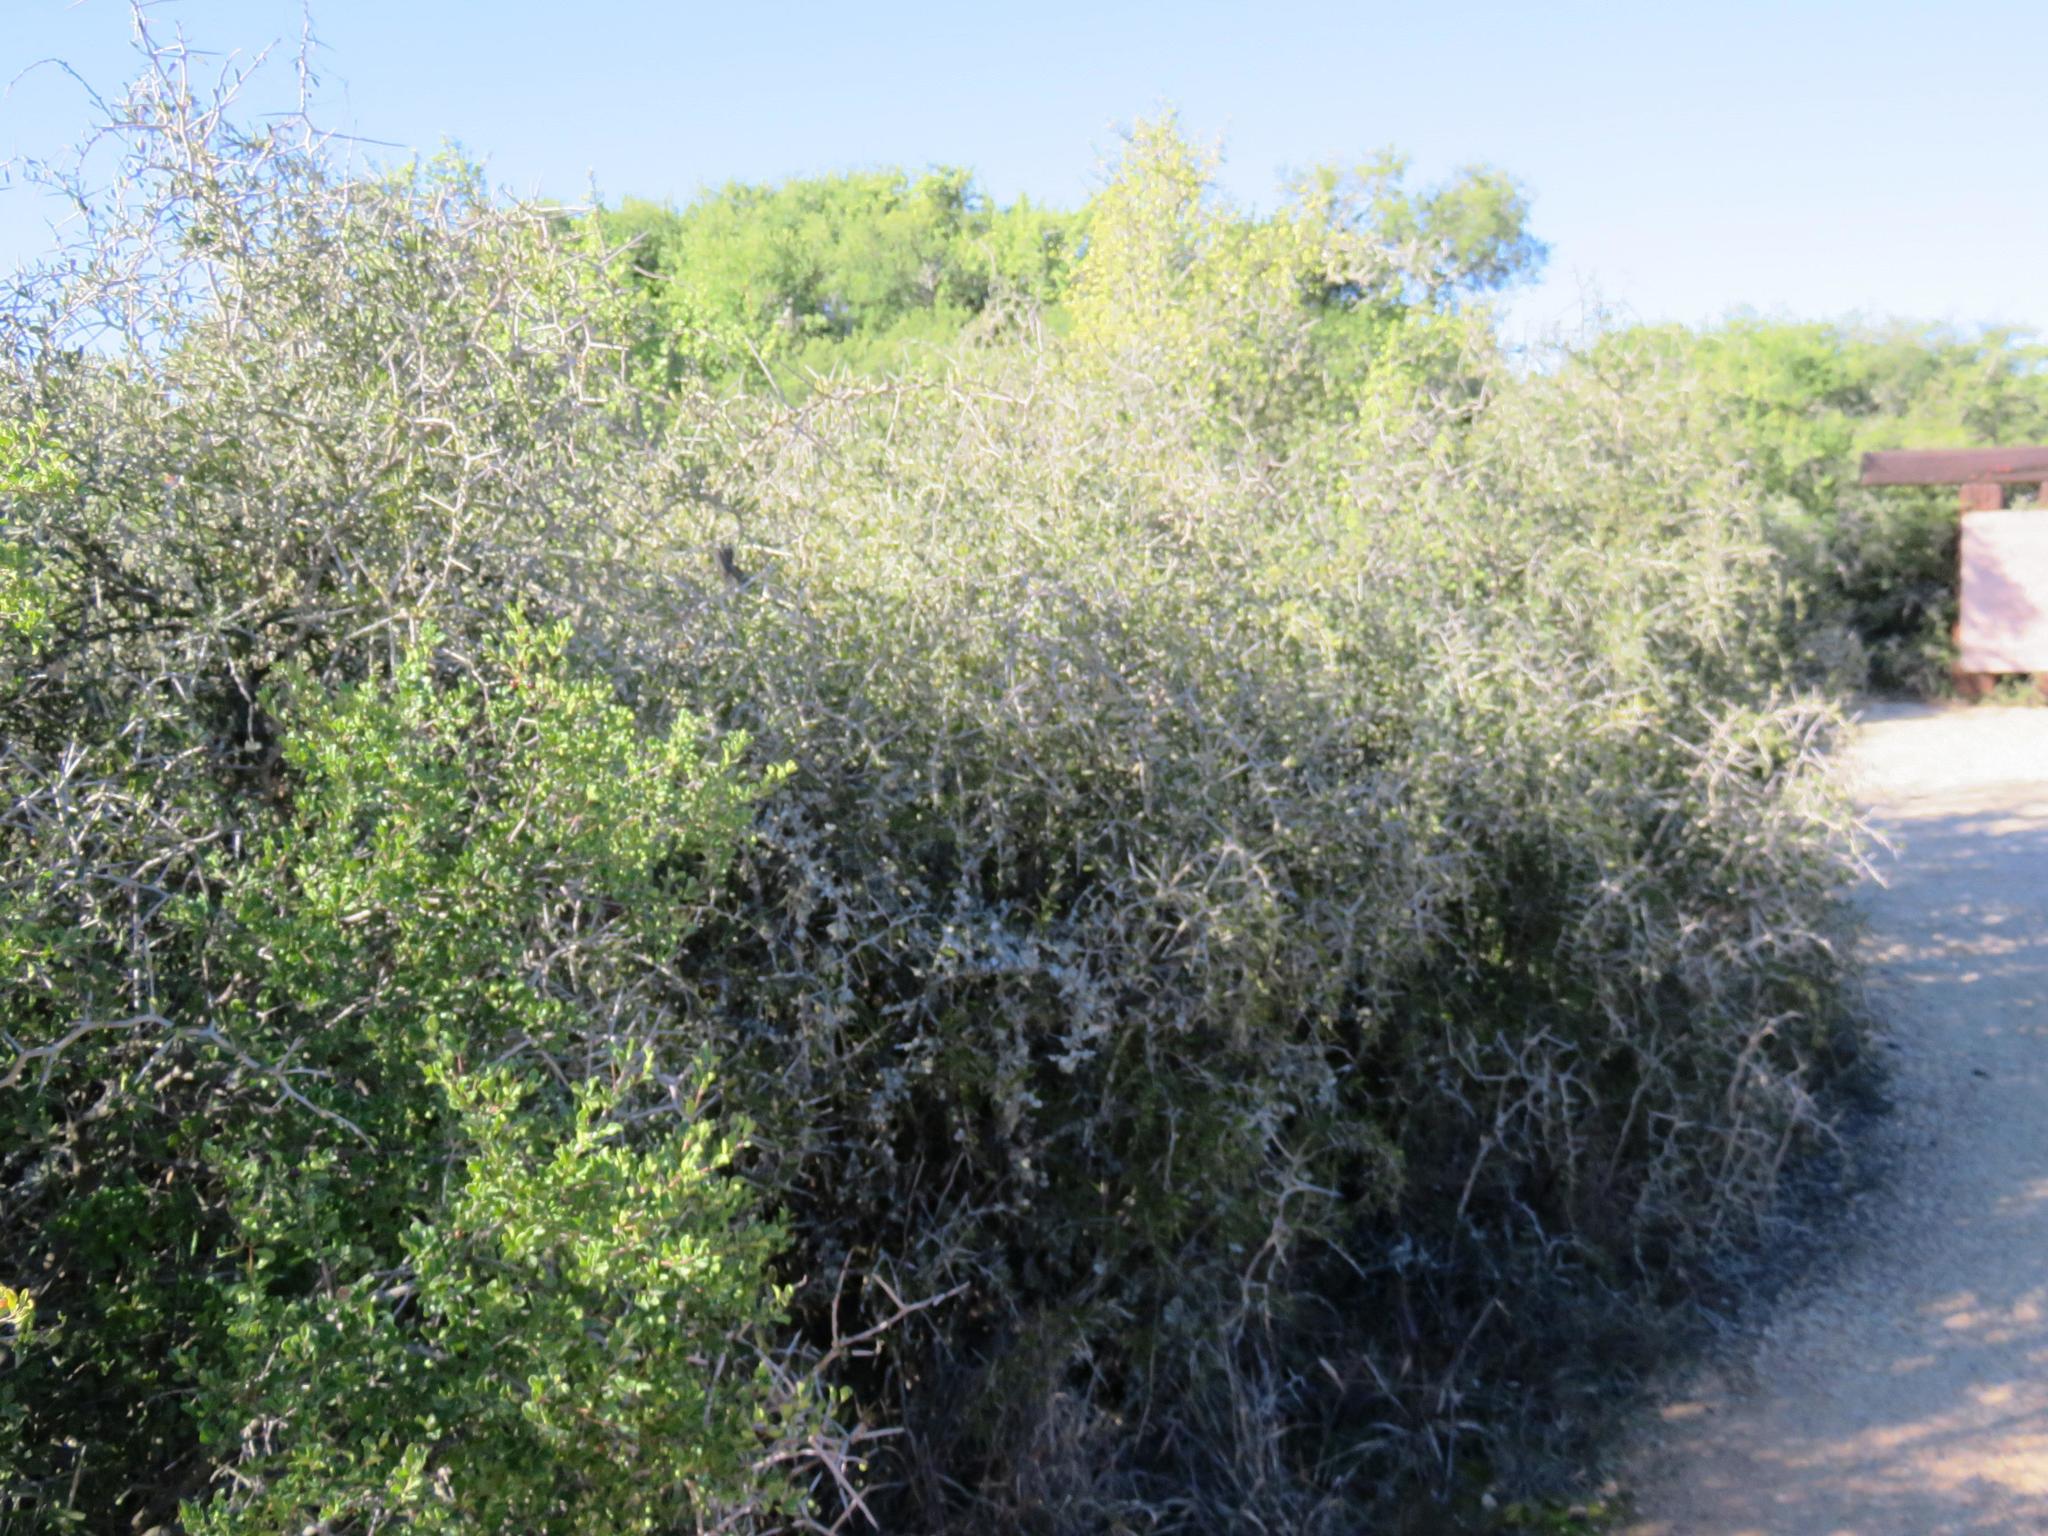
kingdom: Plantae
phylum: Tracheophyta
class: Magnoliopsida
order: Celastrales
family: Celastraceae
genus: Gymnosporia
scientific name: Gymnosporia polyacantha
